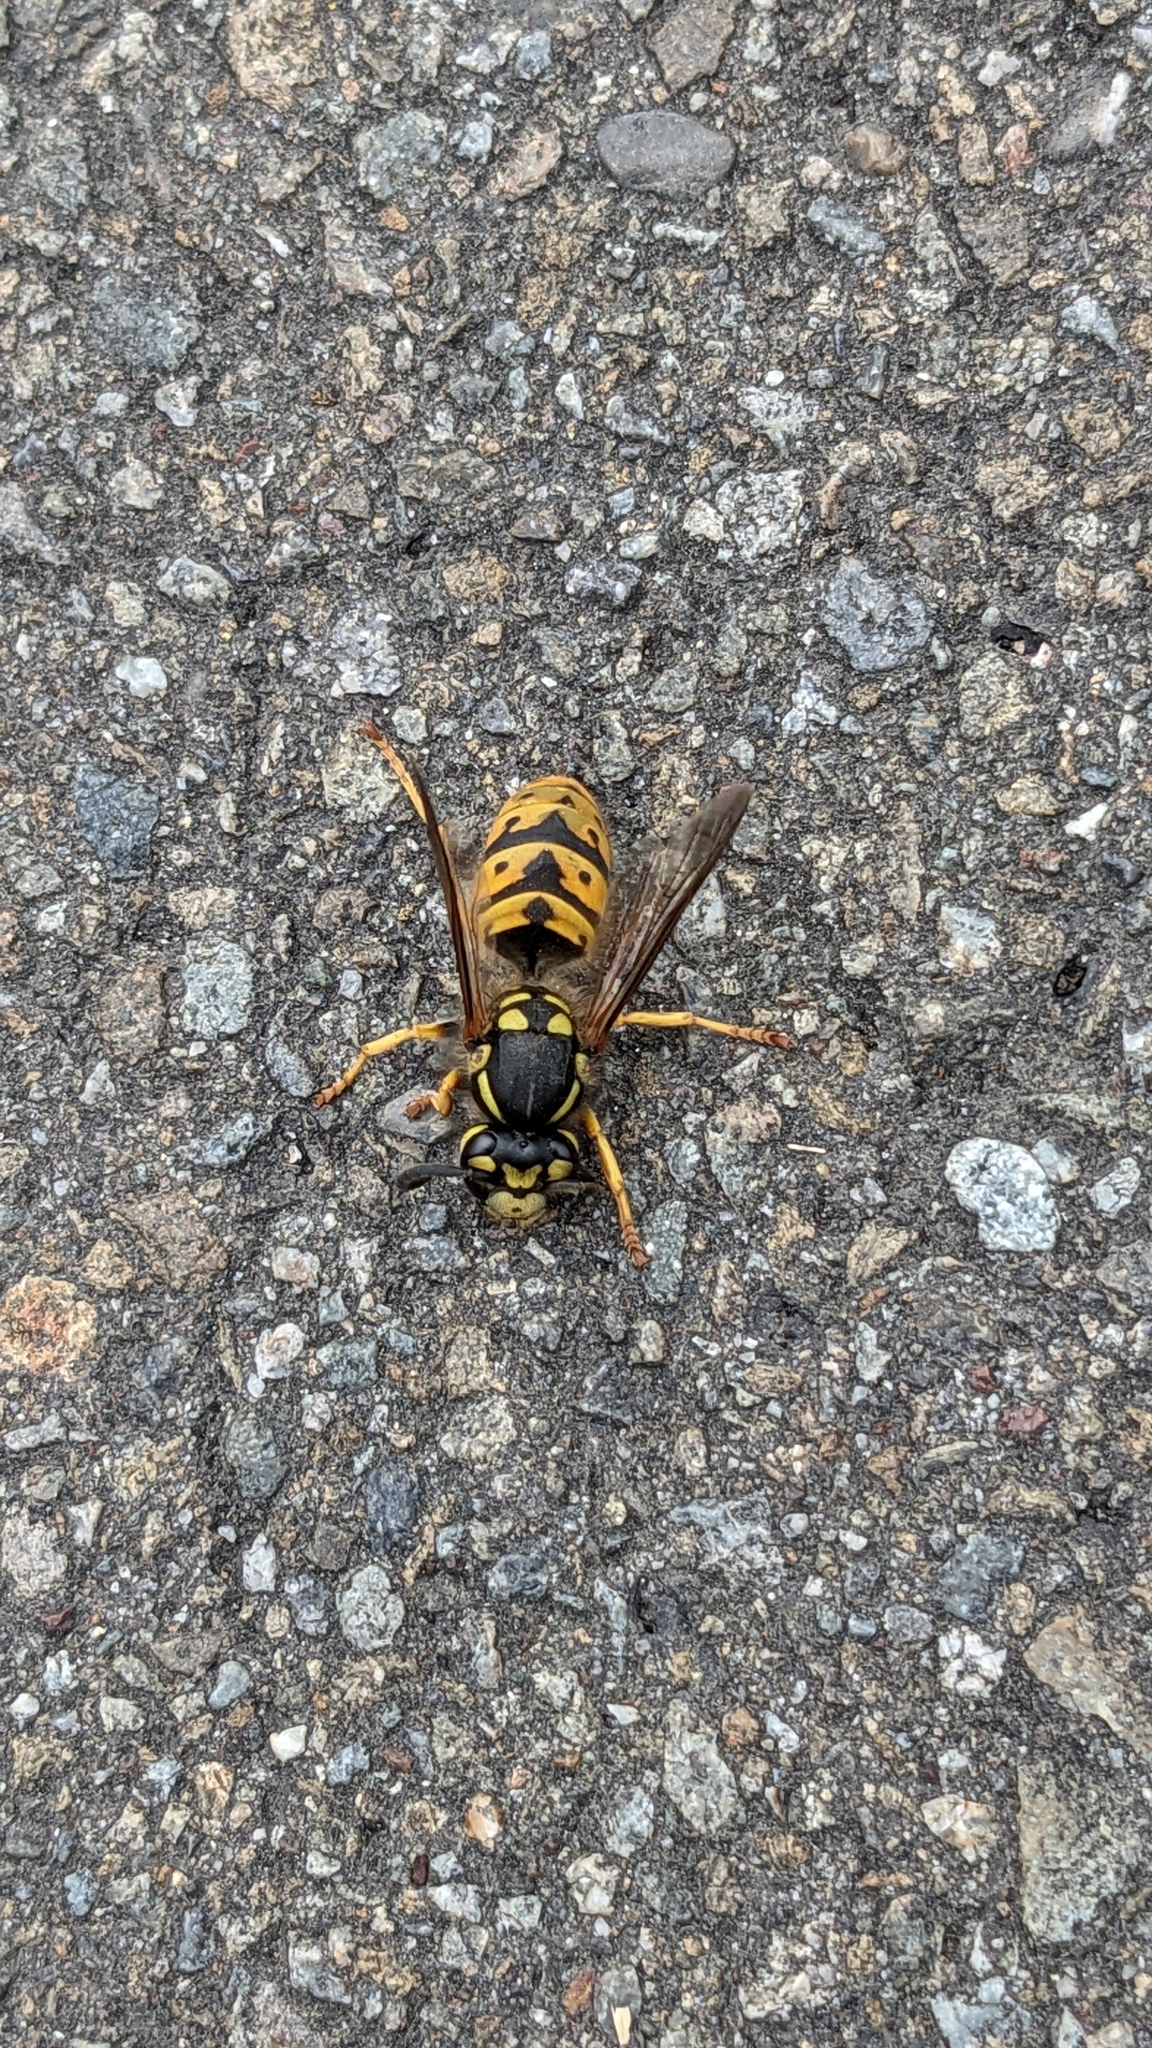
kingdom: Animalia
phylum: Arthropoda
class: Insecta
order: Hymenoptera
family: Vespidae
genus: Vespula
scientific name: Vespula germanica
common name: German wasp
